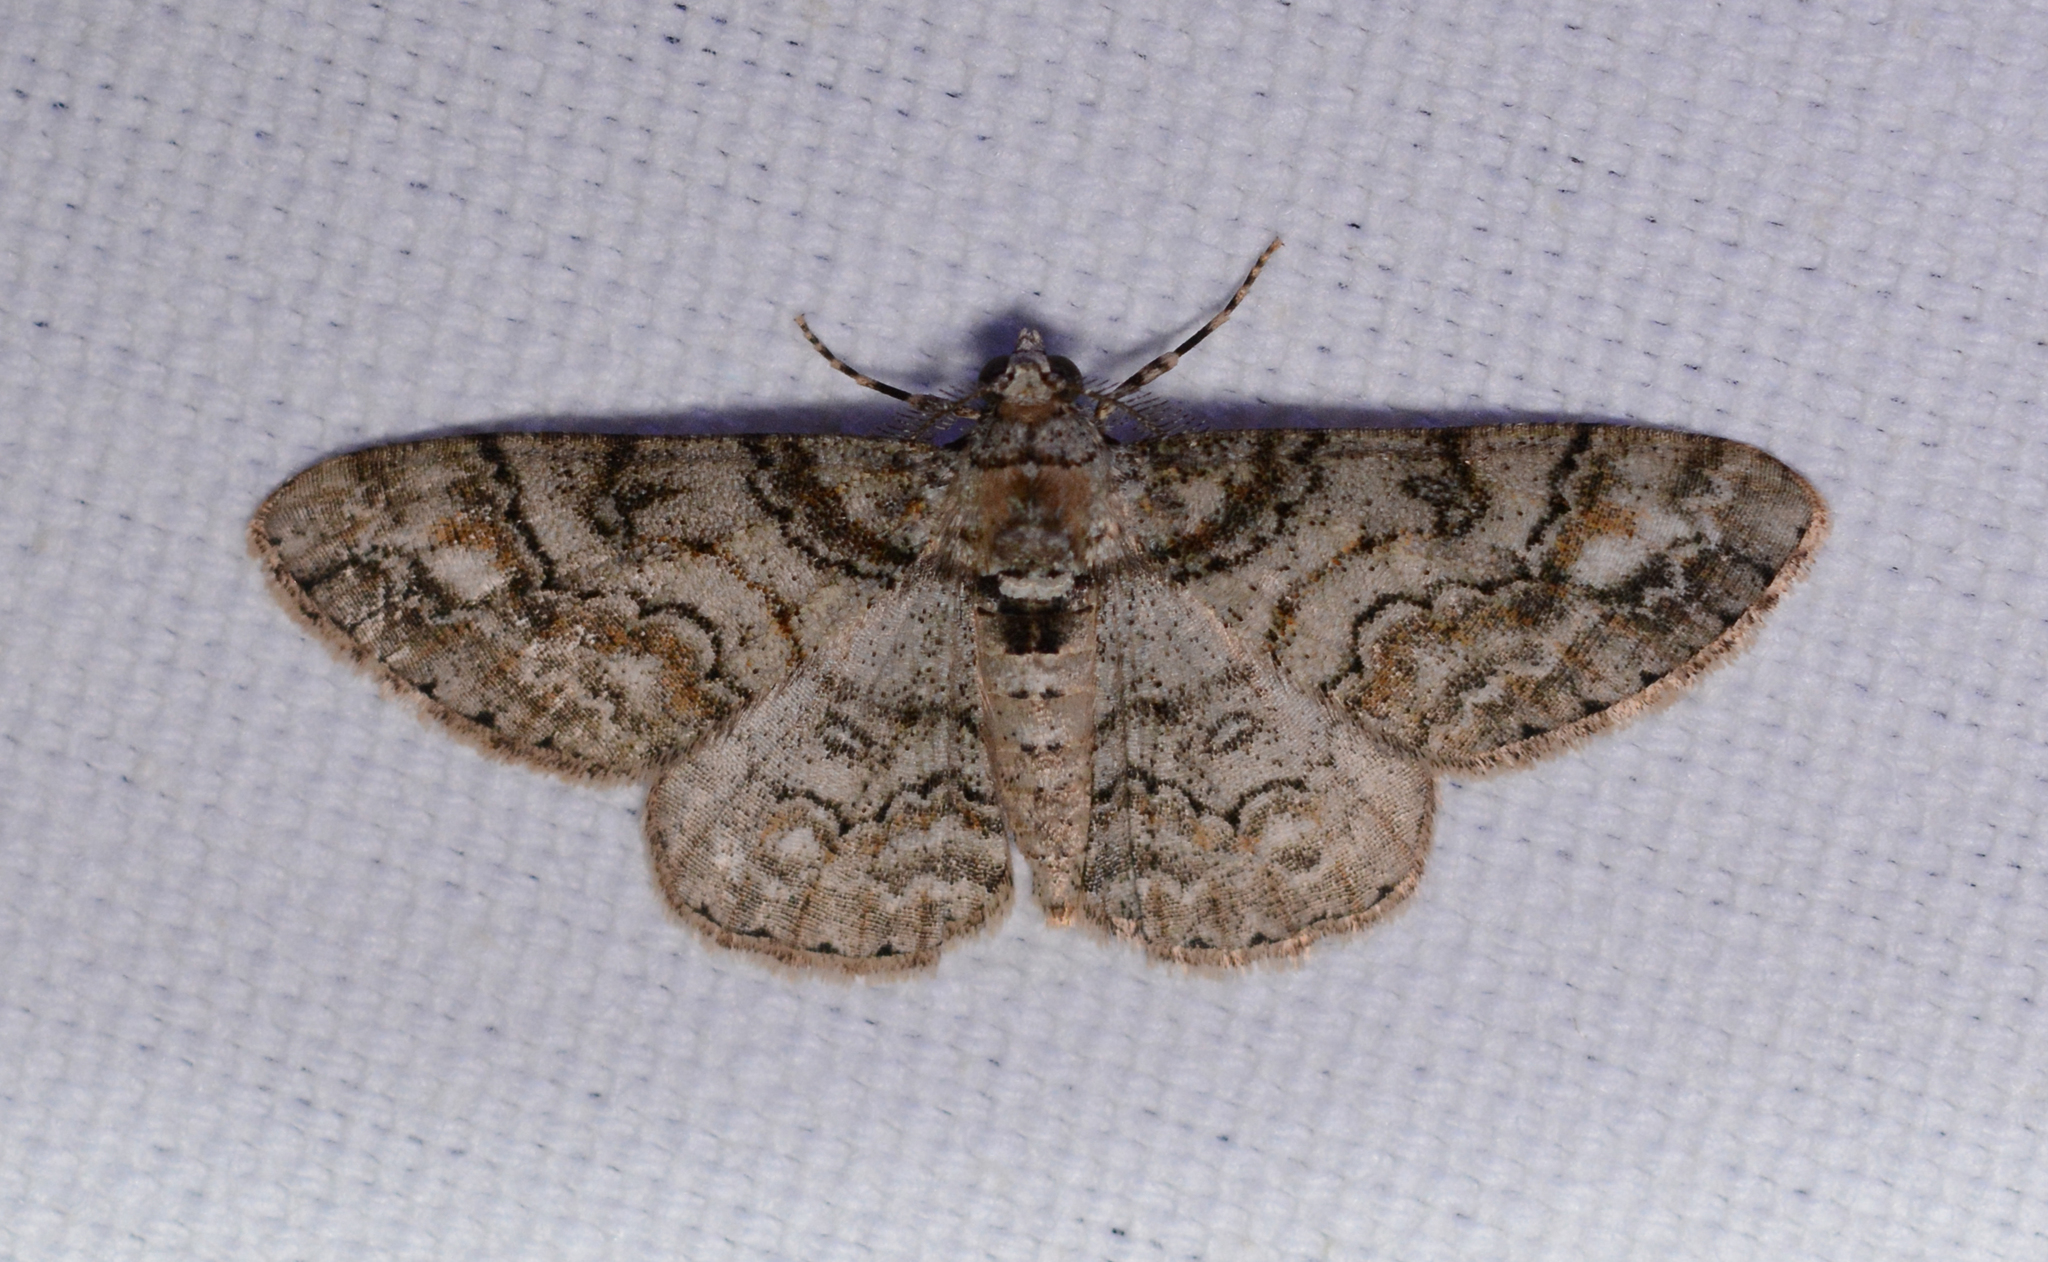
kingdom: Animalia
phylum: Arthropoda
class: Insecta
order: Lepidoptera
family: Geometridae
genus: Cleora
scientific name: Cleora sublunaria
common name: Double-lined gray
